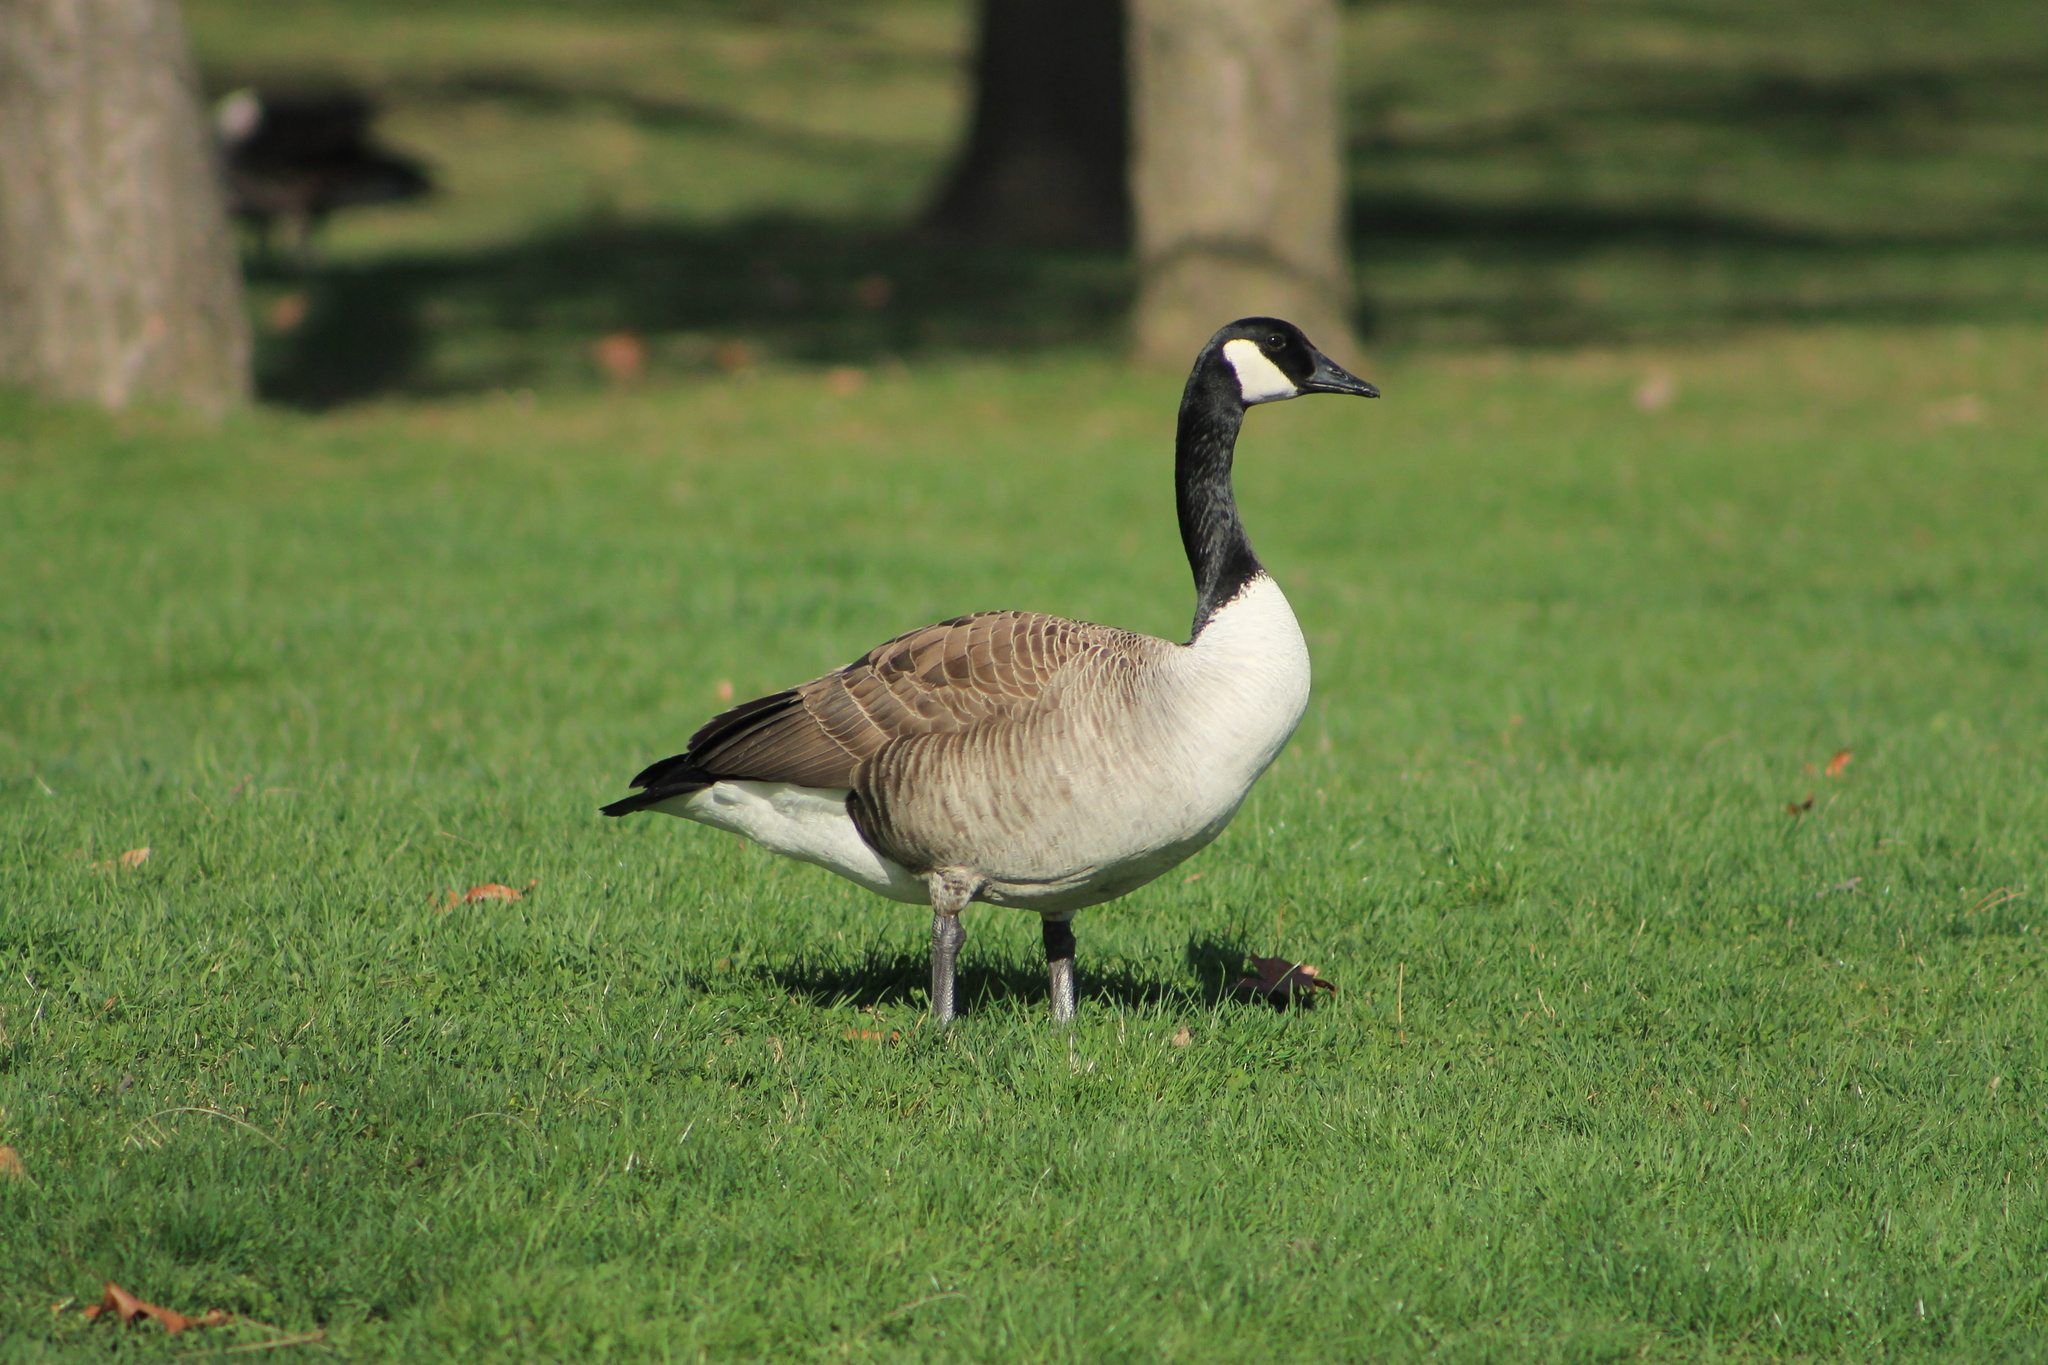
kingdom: Animalia
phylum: Chordata
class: Aves
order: Anseriformes
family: Anatidae
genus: Branta
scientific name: Branta canadensis
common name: Canada goose
